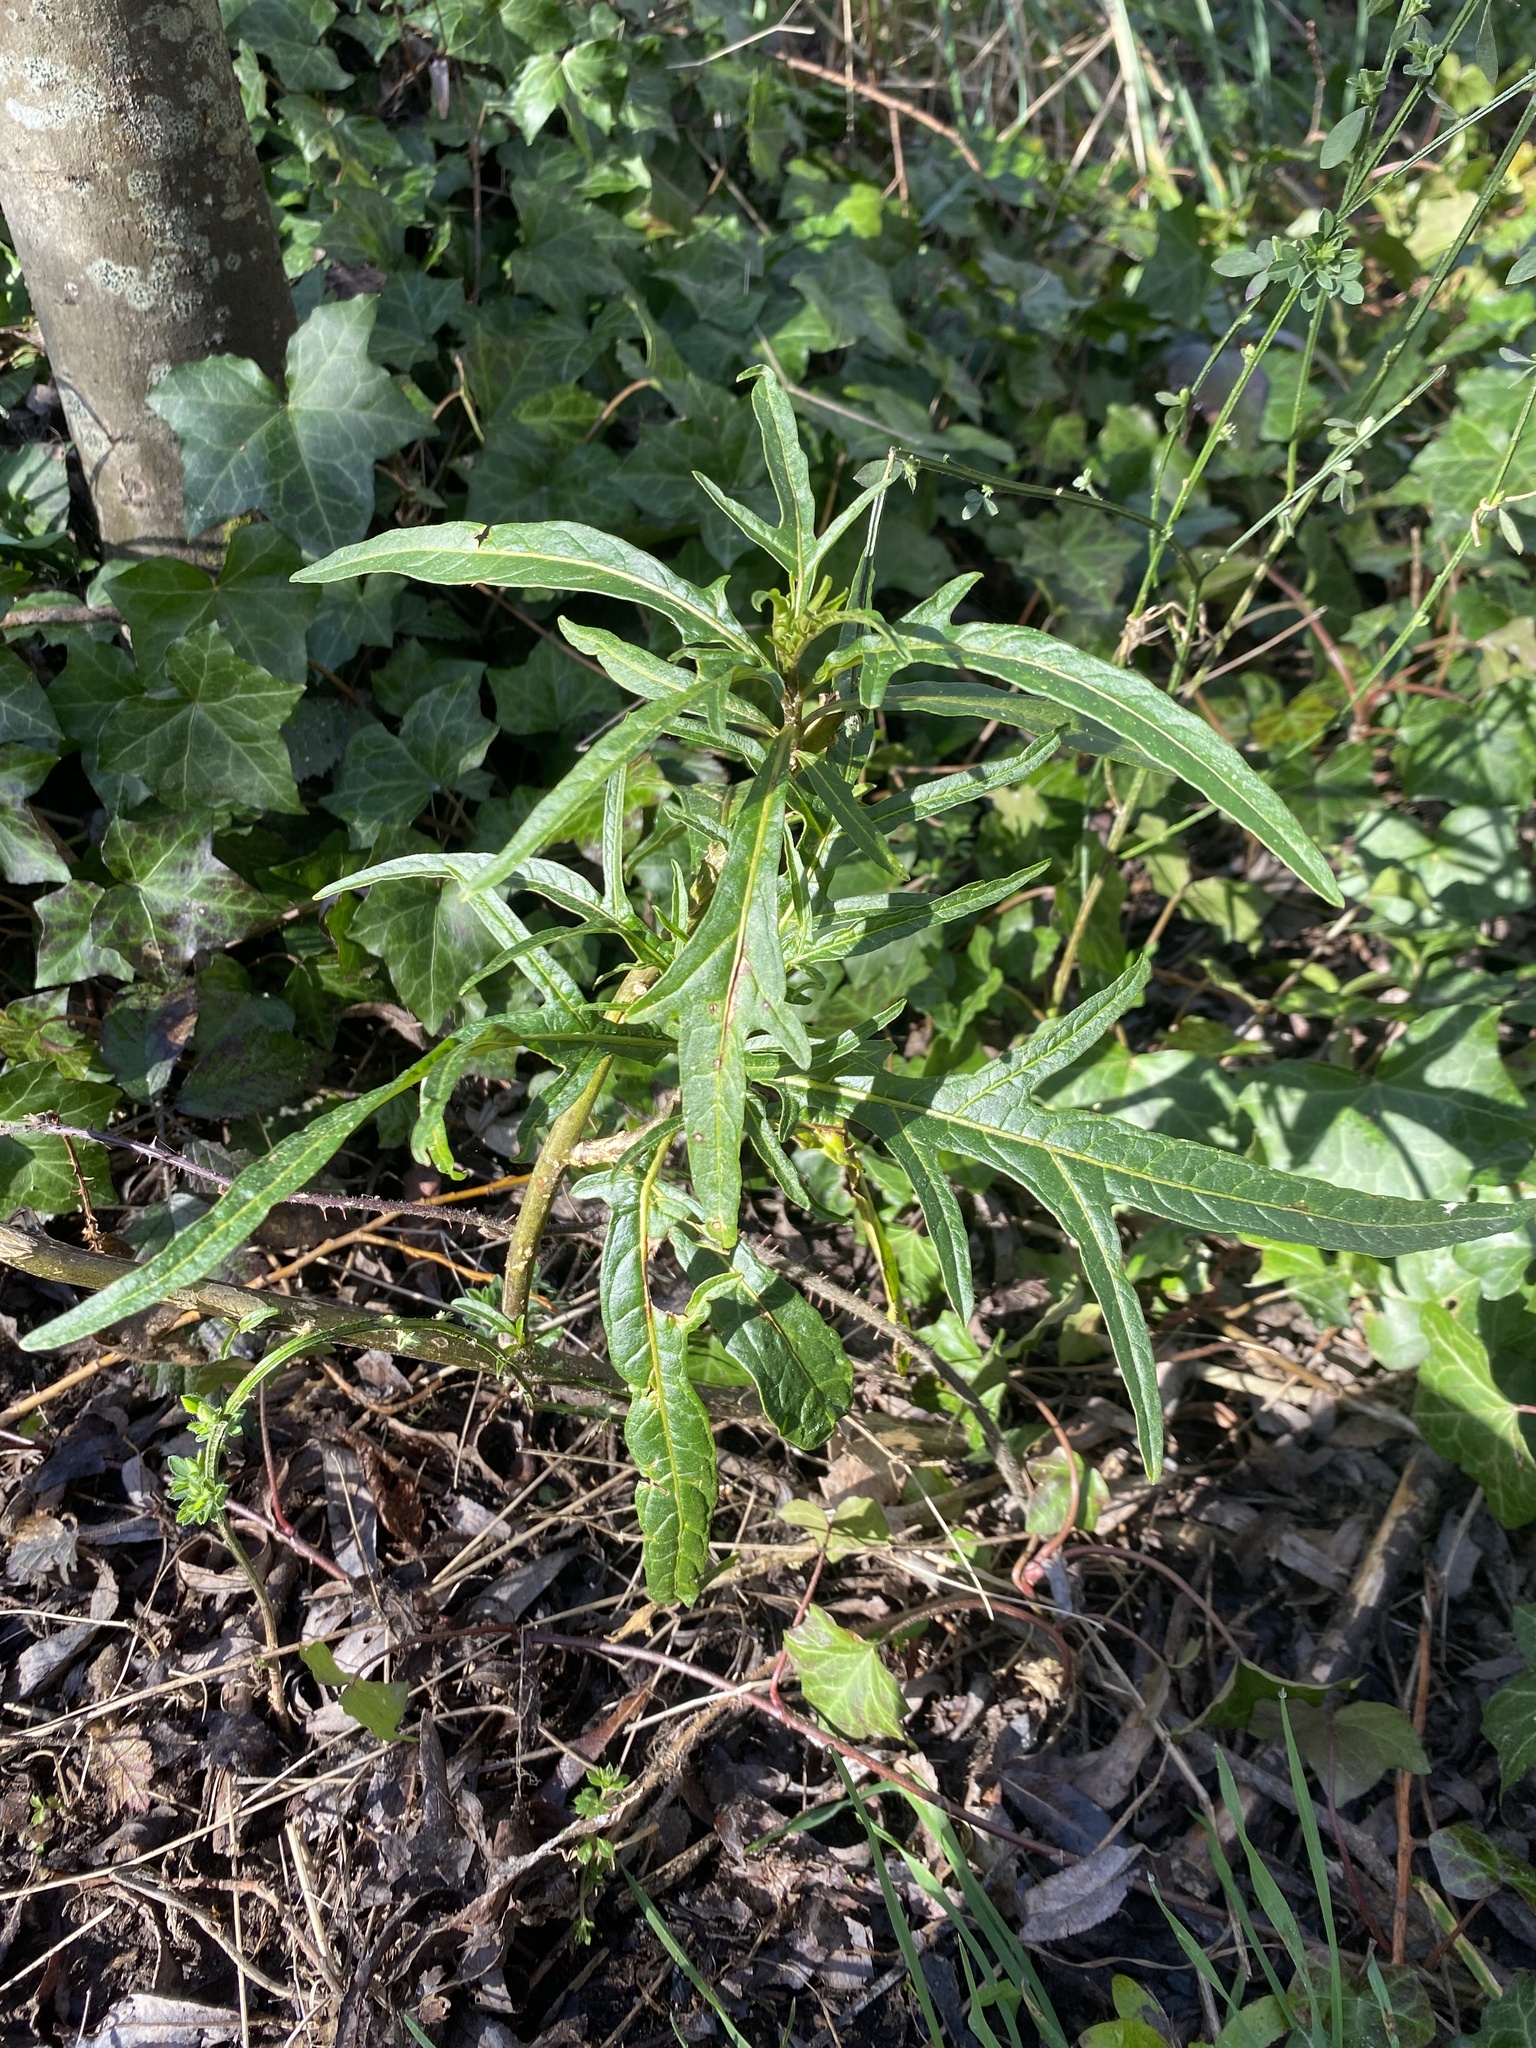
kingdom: Plantae
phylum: Tracheophyta
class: Magnoliopsida
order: Solanales
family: Solanaceae
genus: Solanum
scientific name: Solanum
